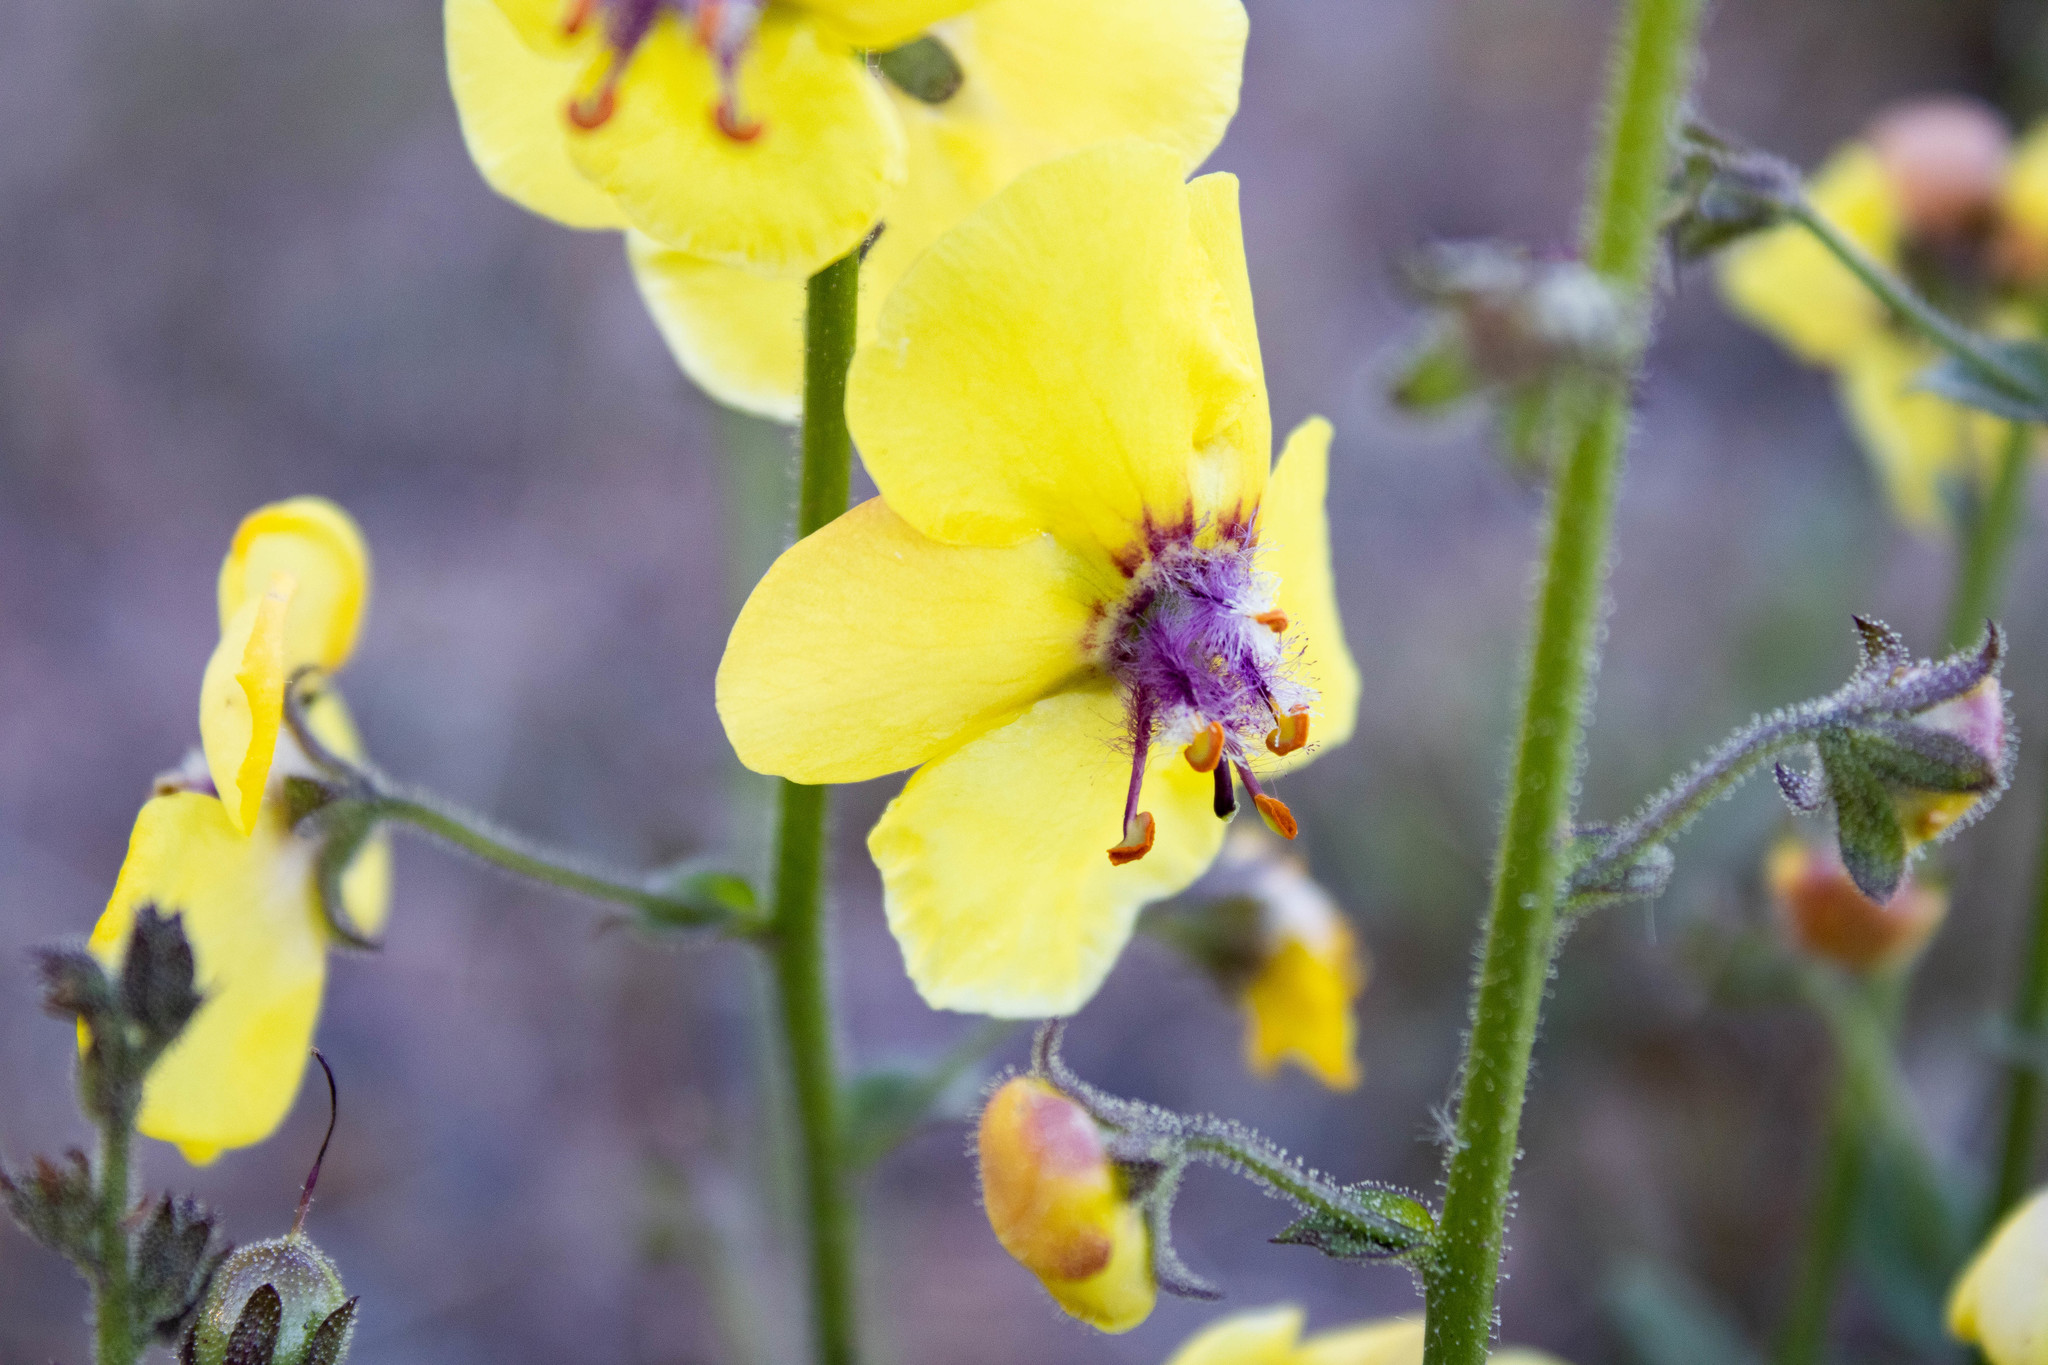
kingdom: Plantae
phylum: Tracheophyta
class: Magnoliopsida
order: Lamiales
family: Scrophulariaceae
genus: Verbascum
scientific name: Verbascum blattaria
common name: Moth mullein
